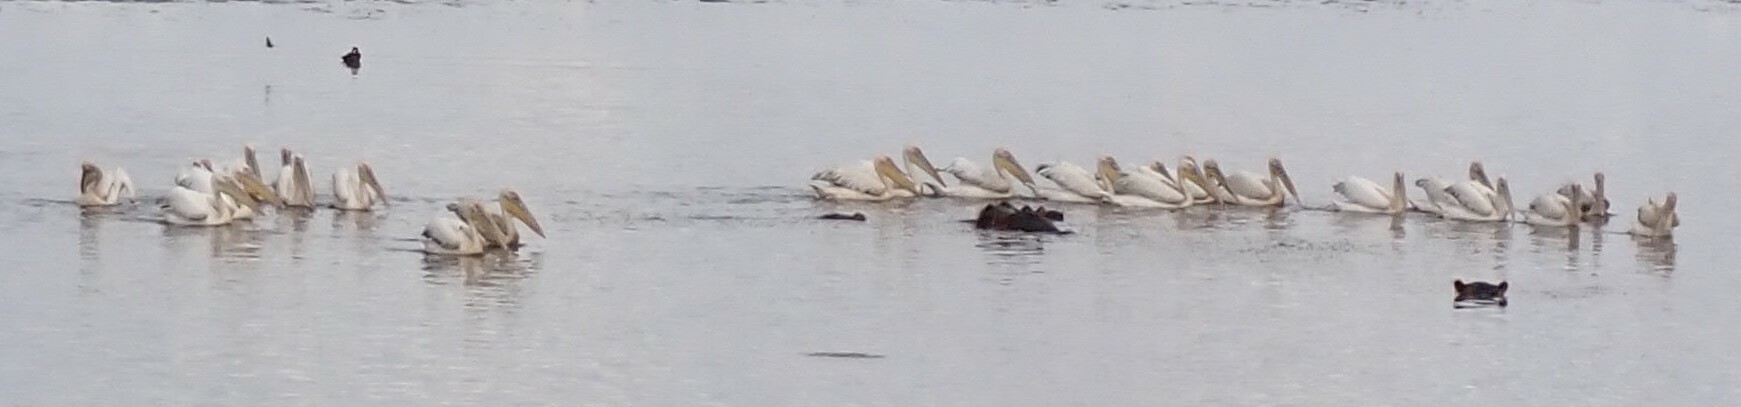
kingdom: Animalia
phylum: Chordata
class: Aves
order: Pelecaniformes
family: Pelecanidae
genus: Pelecanus
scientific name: Pelecanus onocrotalus
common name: Great white pelican
